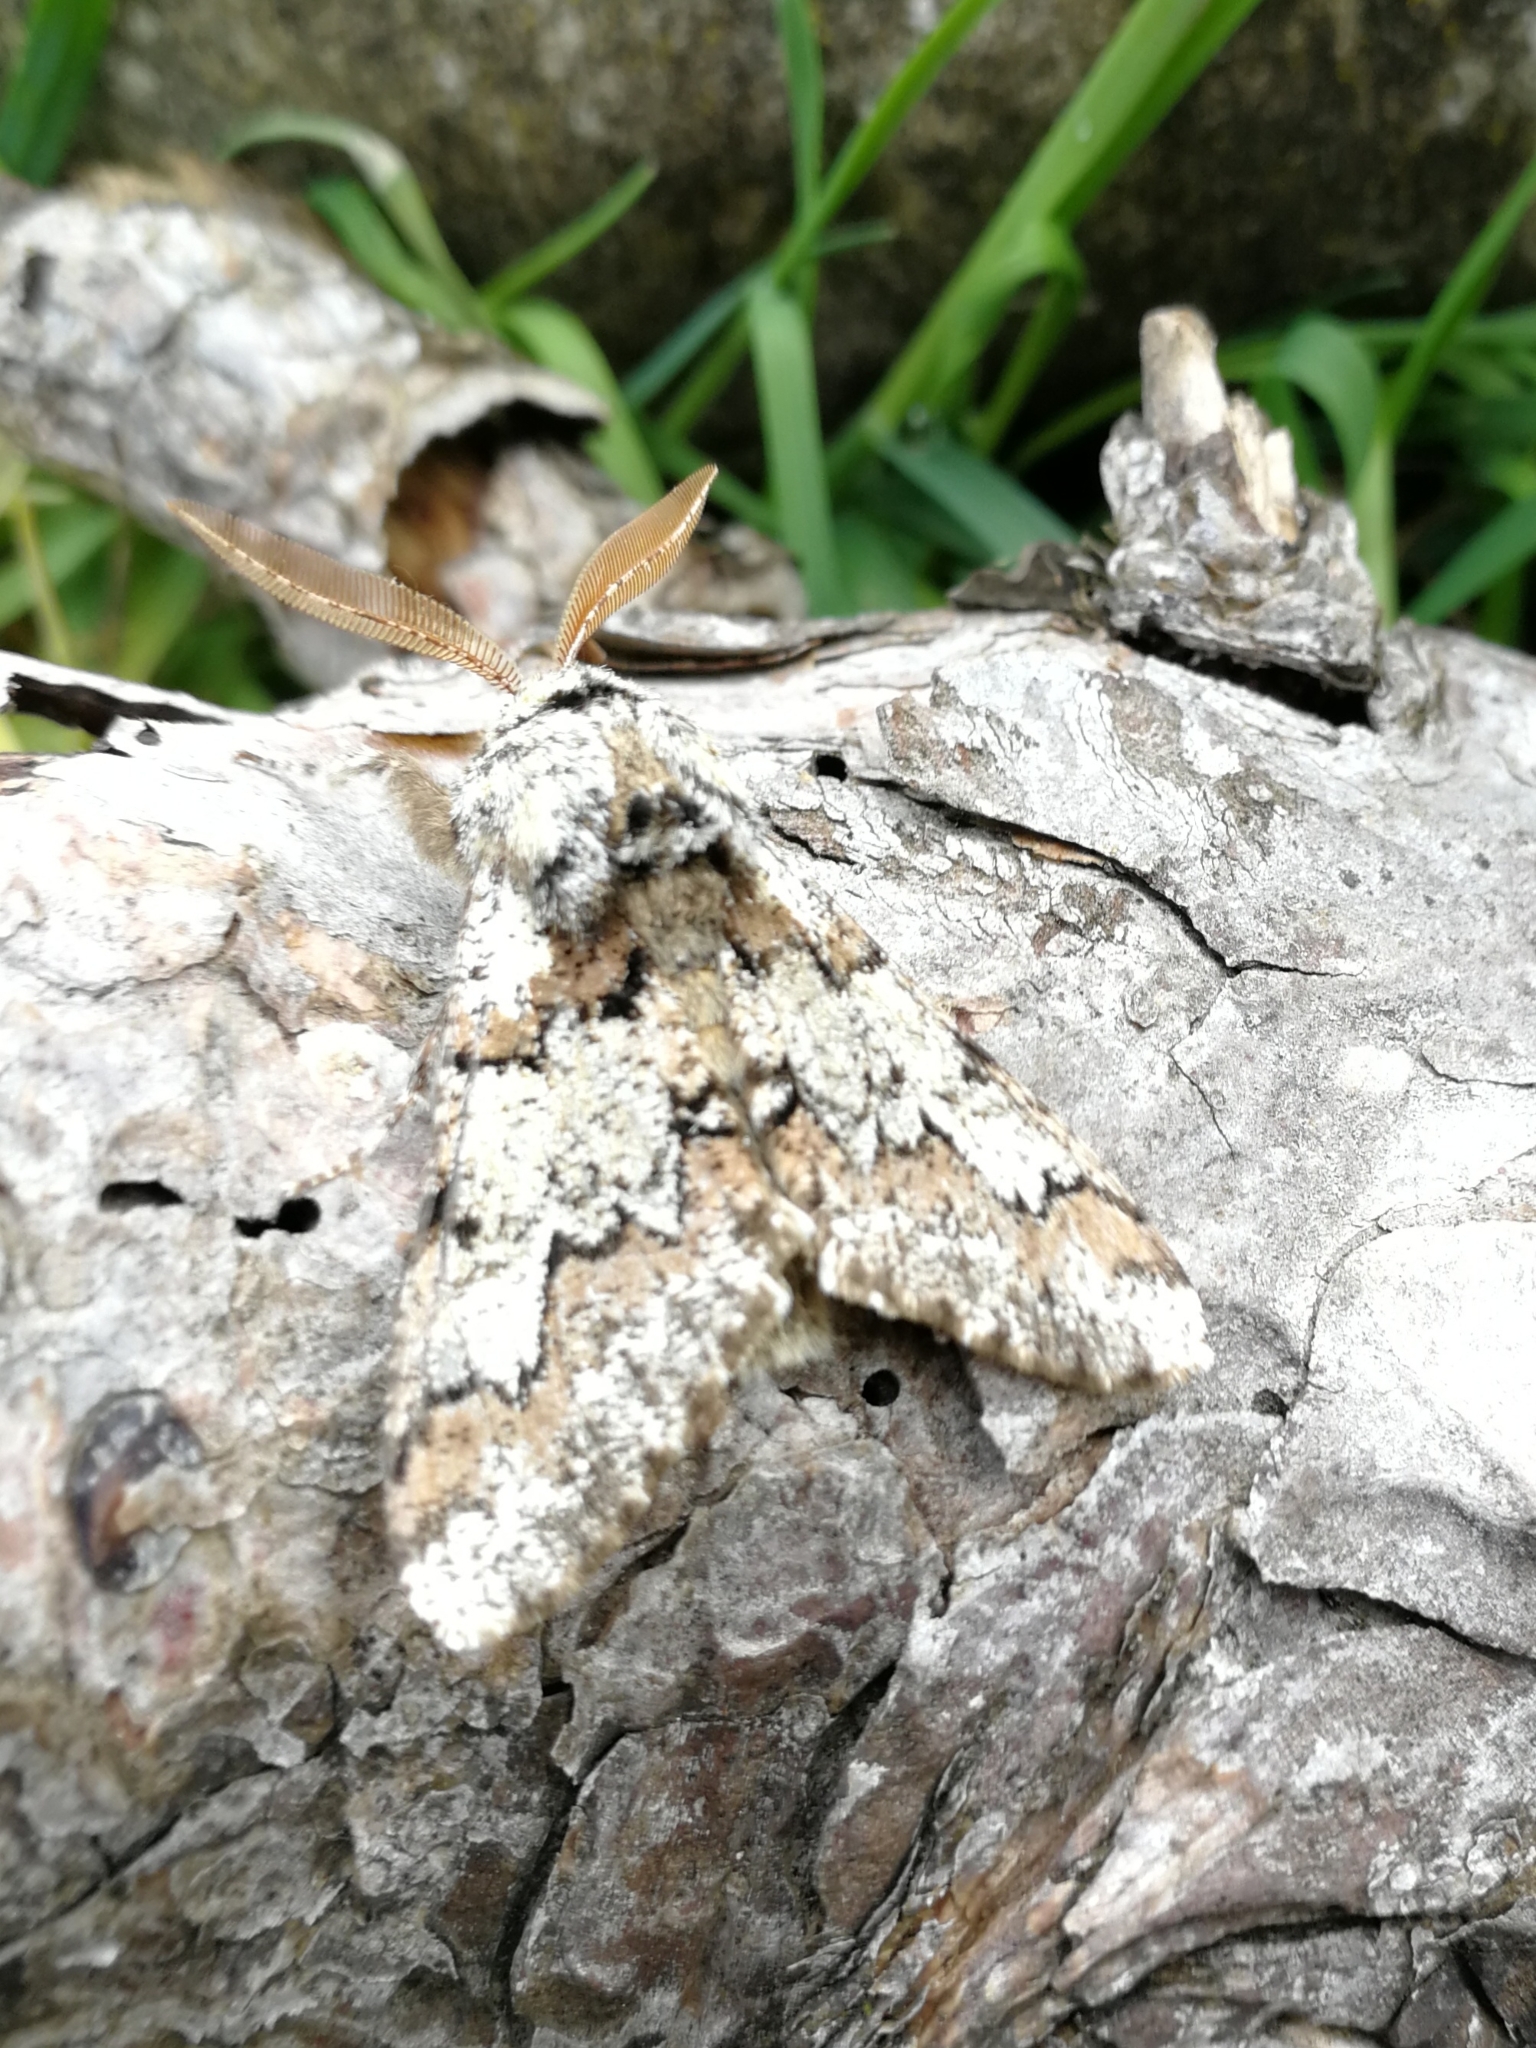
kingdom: Animalia
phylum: Arthropoda
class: Insecta
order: Lepidoptera
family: Geometridae
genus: Biston
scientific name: Biston strataria
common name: Oak beauty
